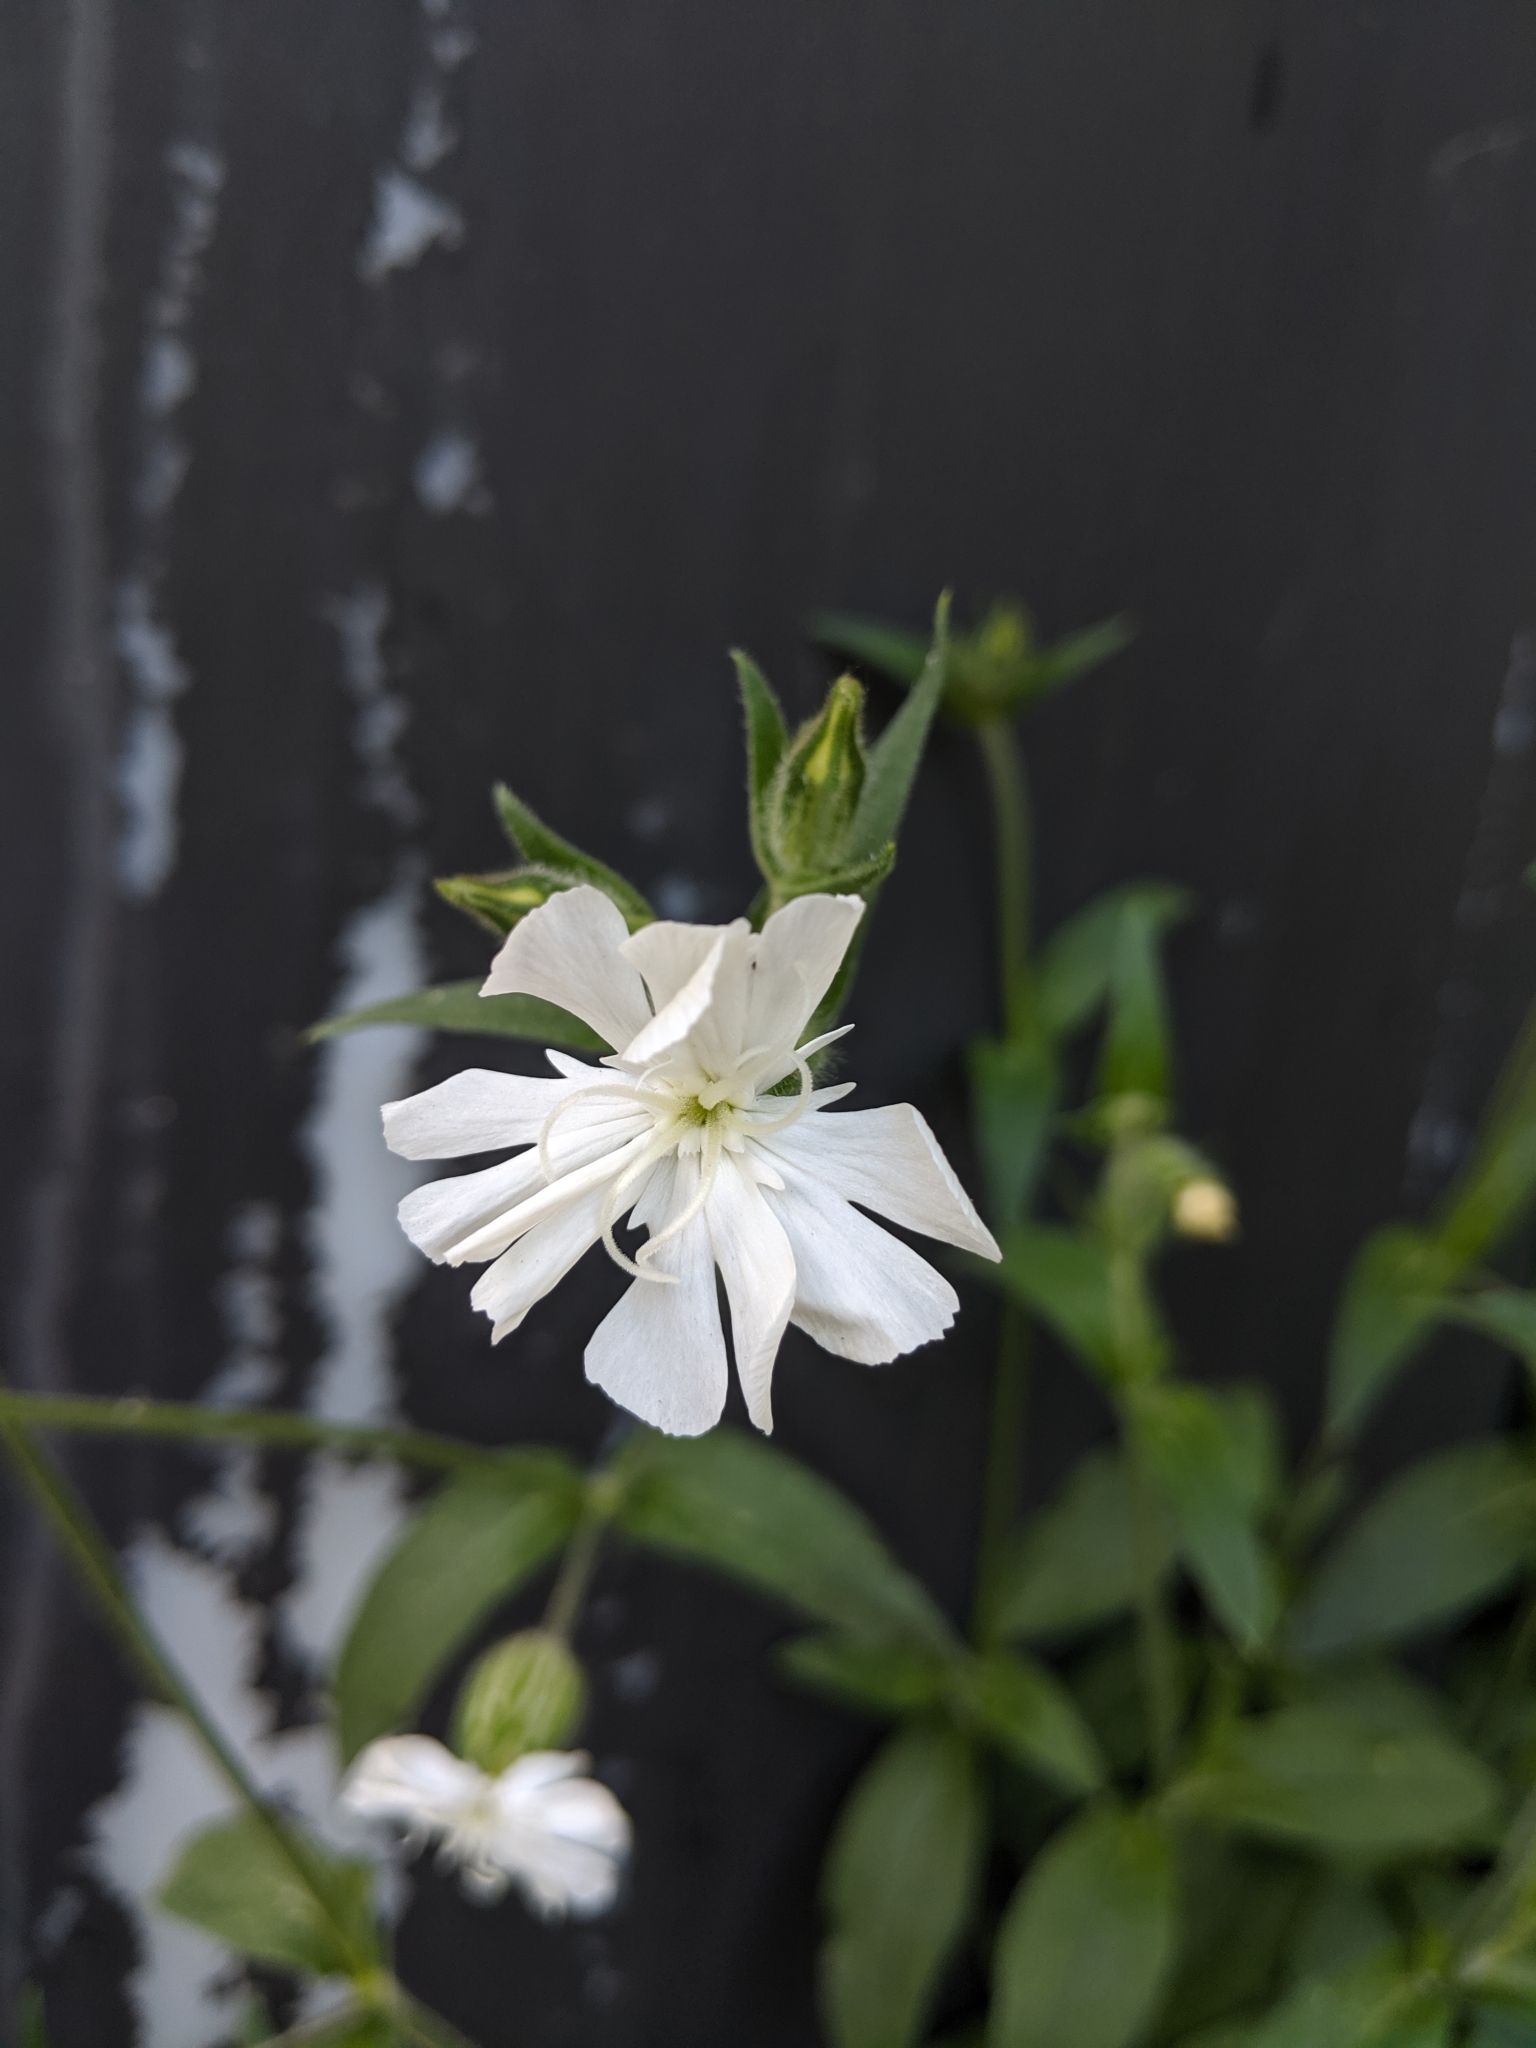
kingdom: Plantae
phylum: Tracheophyta
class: Magnoliopsida
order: Caryophyllales
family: Caryophyllaceae
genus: Silene
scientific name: Silene latifolia
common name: White campion
